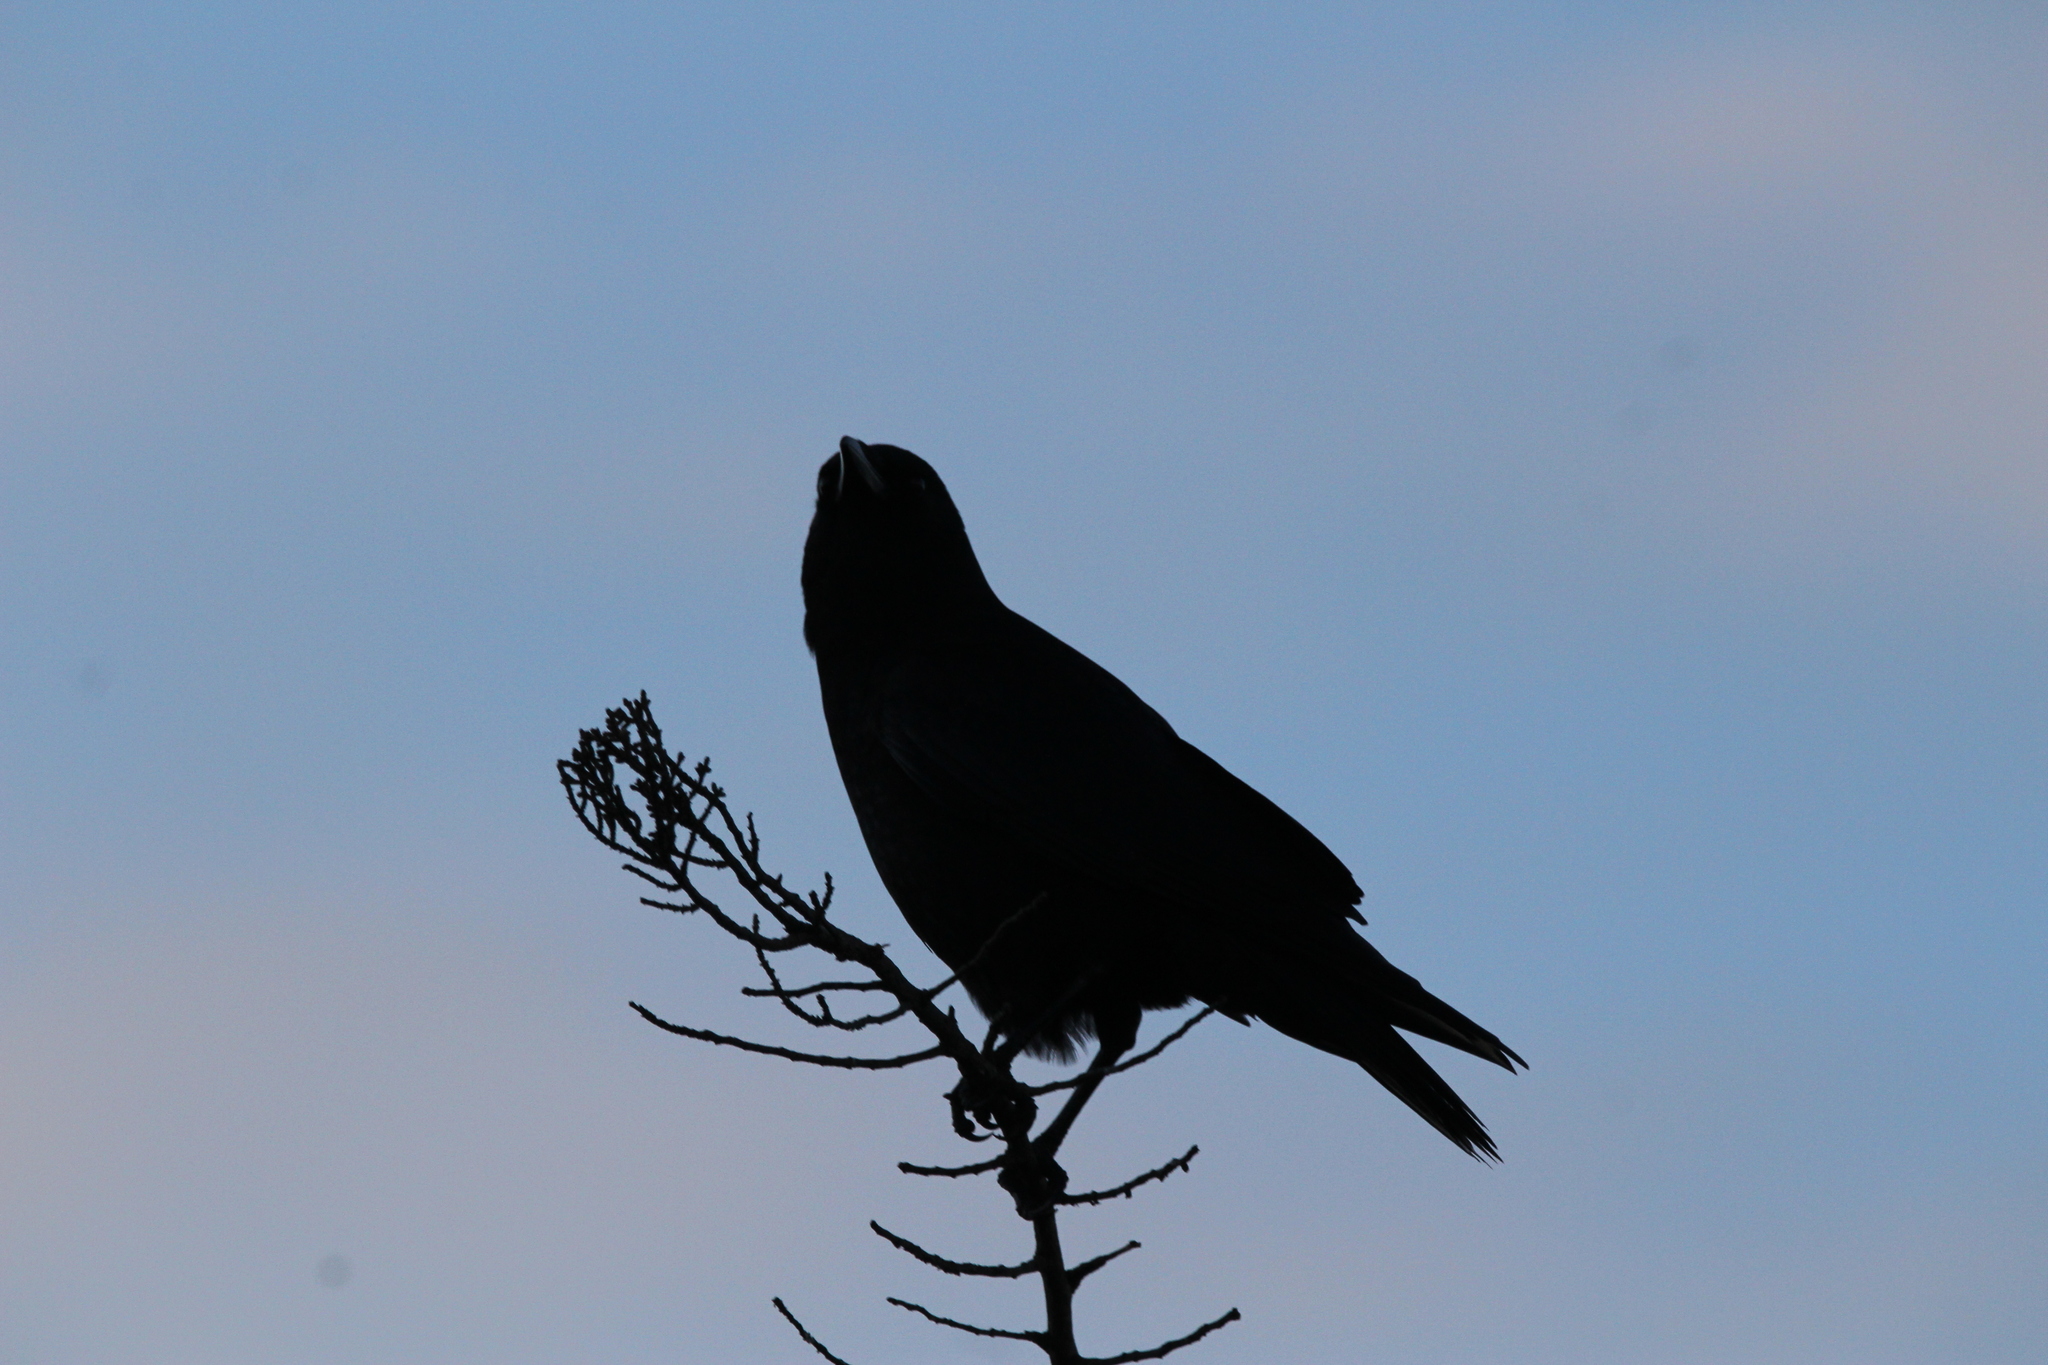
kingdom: Animalia
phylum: Chordata
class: Aves
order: Passeriformes
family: Corvidae
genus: Corvus
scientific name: Corvus brachyrhynchos
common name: American crow
